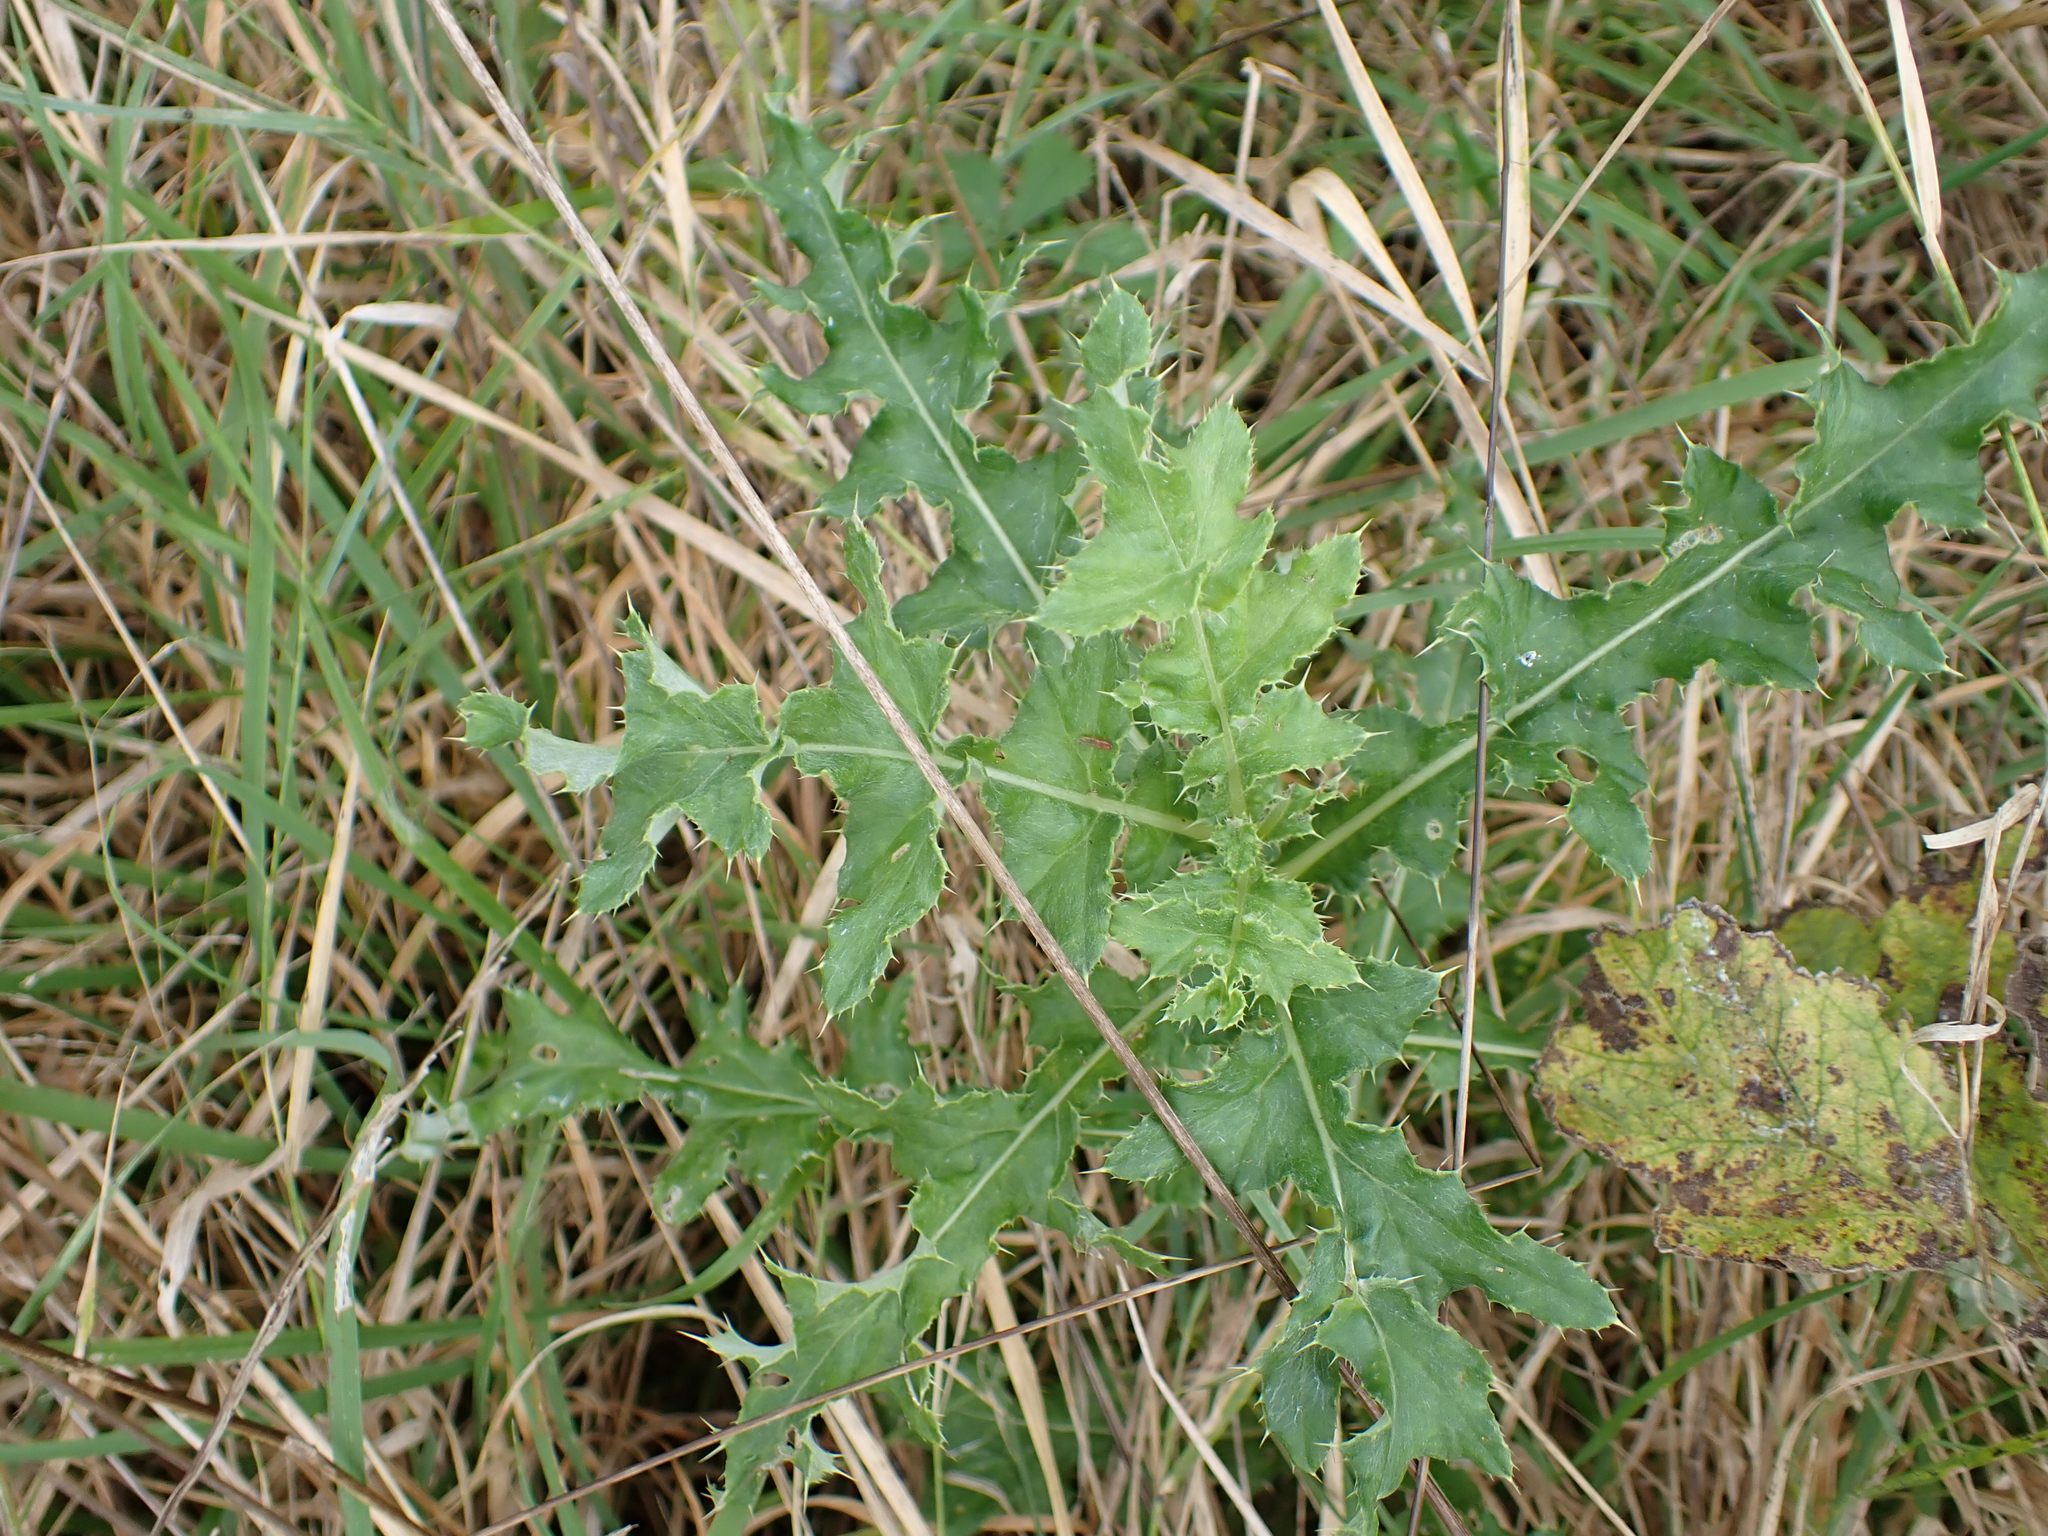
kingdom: Plantae
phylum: Tracheophyta
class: Magnoliopsida
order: Asterales
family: Asteraceae
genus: Cirsium
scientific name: Cirsium arvense
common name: Creeping thistle
